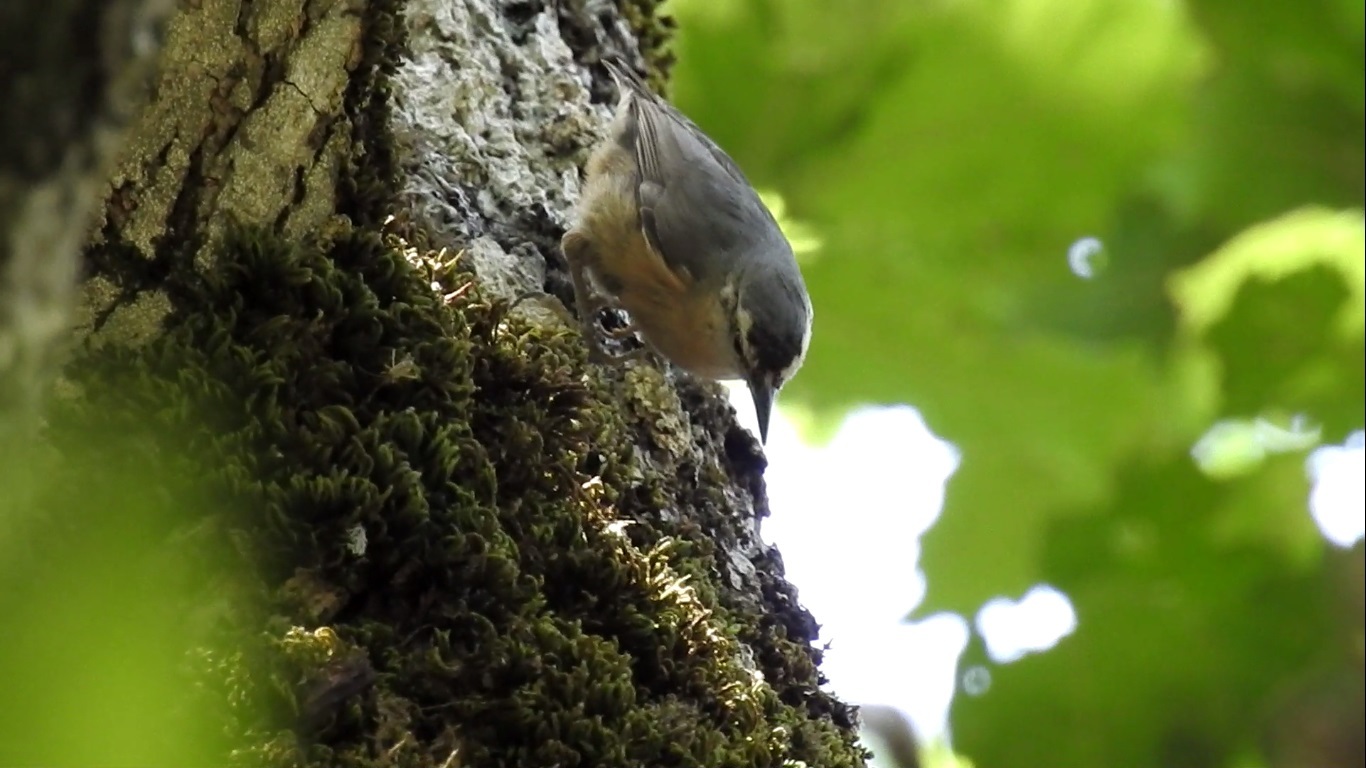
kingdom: Animalia
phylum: Chordata
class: Aves
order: Passeriformes
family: Sittidae
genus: Sitta
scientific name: Sitta ledanti
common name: Algerian nuthatch
